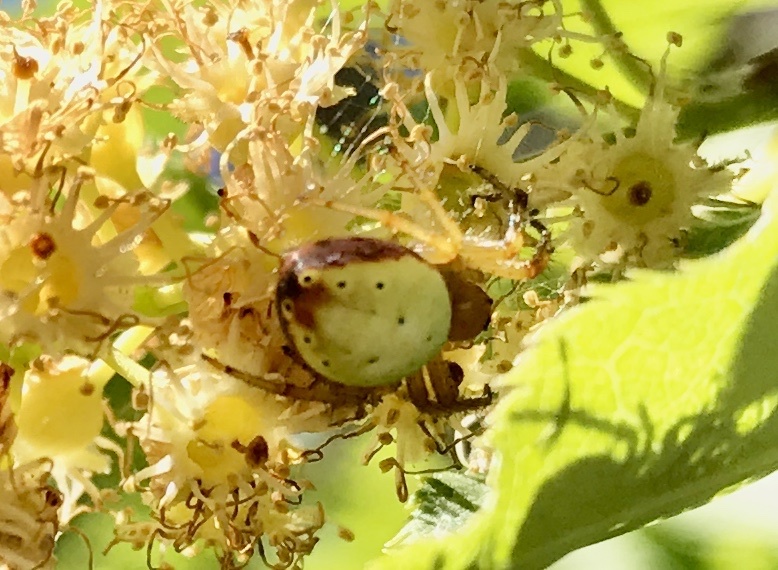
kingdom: Animalia
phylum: Arthropoda
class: Arachnida
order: Araneae
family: Araneidae
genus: Araniella
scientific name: Araniella displicata
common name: Sixspotted orb weaver
